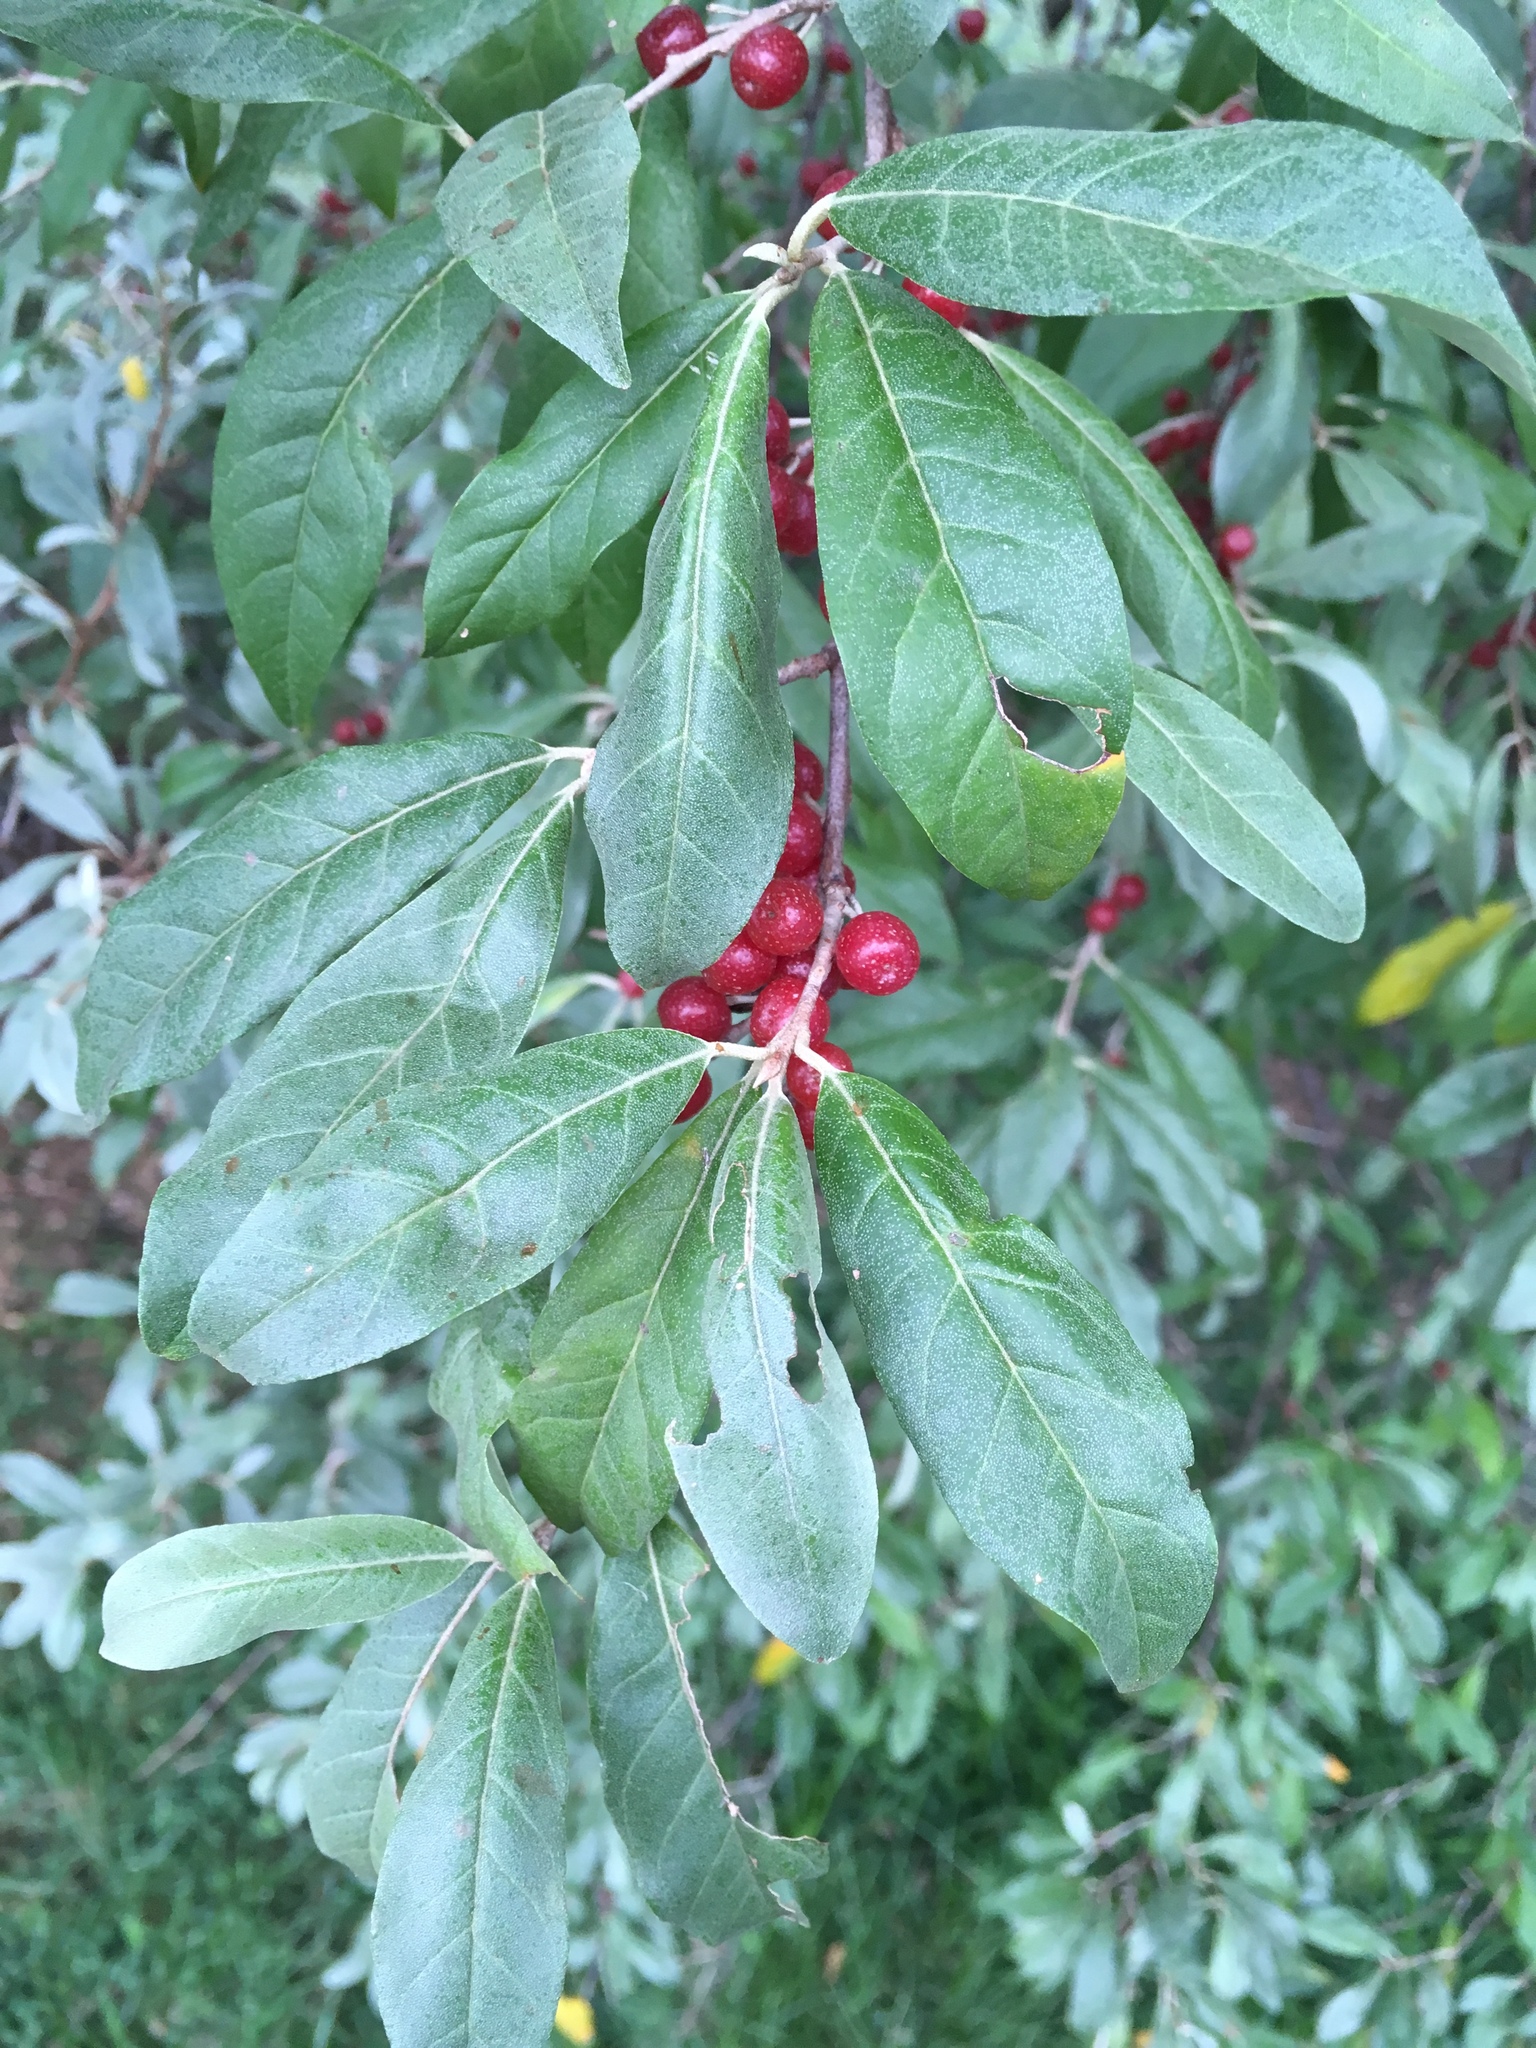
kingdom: Plantae
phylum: Tracheophyta
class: Magnoliopsida
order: Rosales
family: Elaeagnaceae
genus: Elaeagnus
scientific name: Elaeagnus umbellata
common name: Autumn olive
